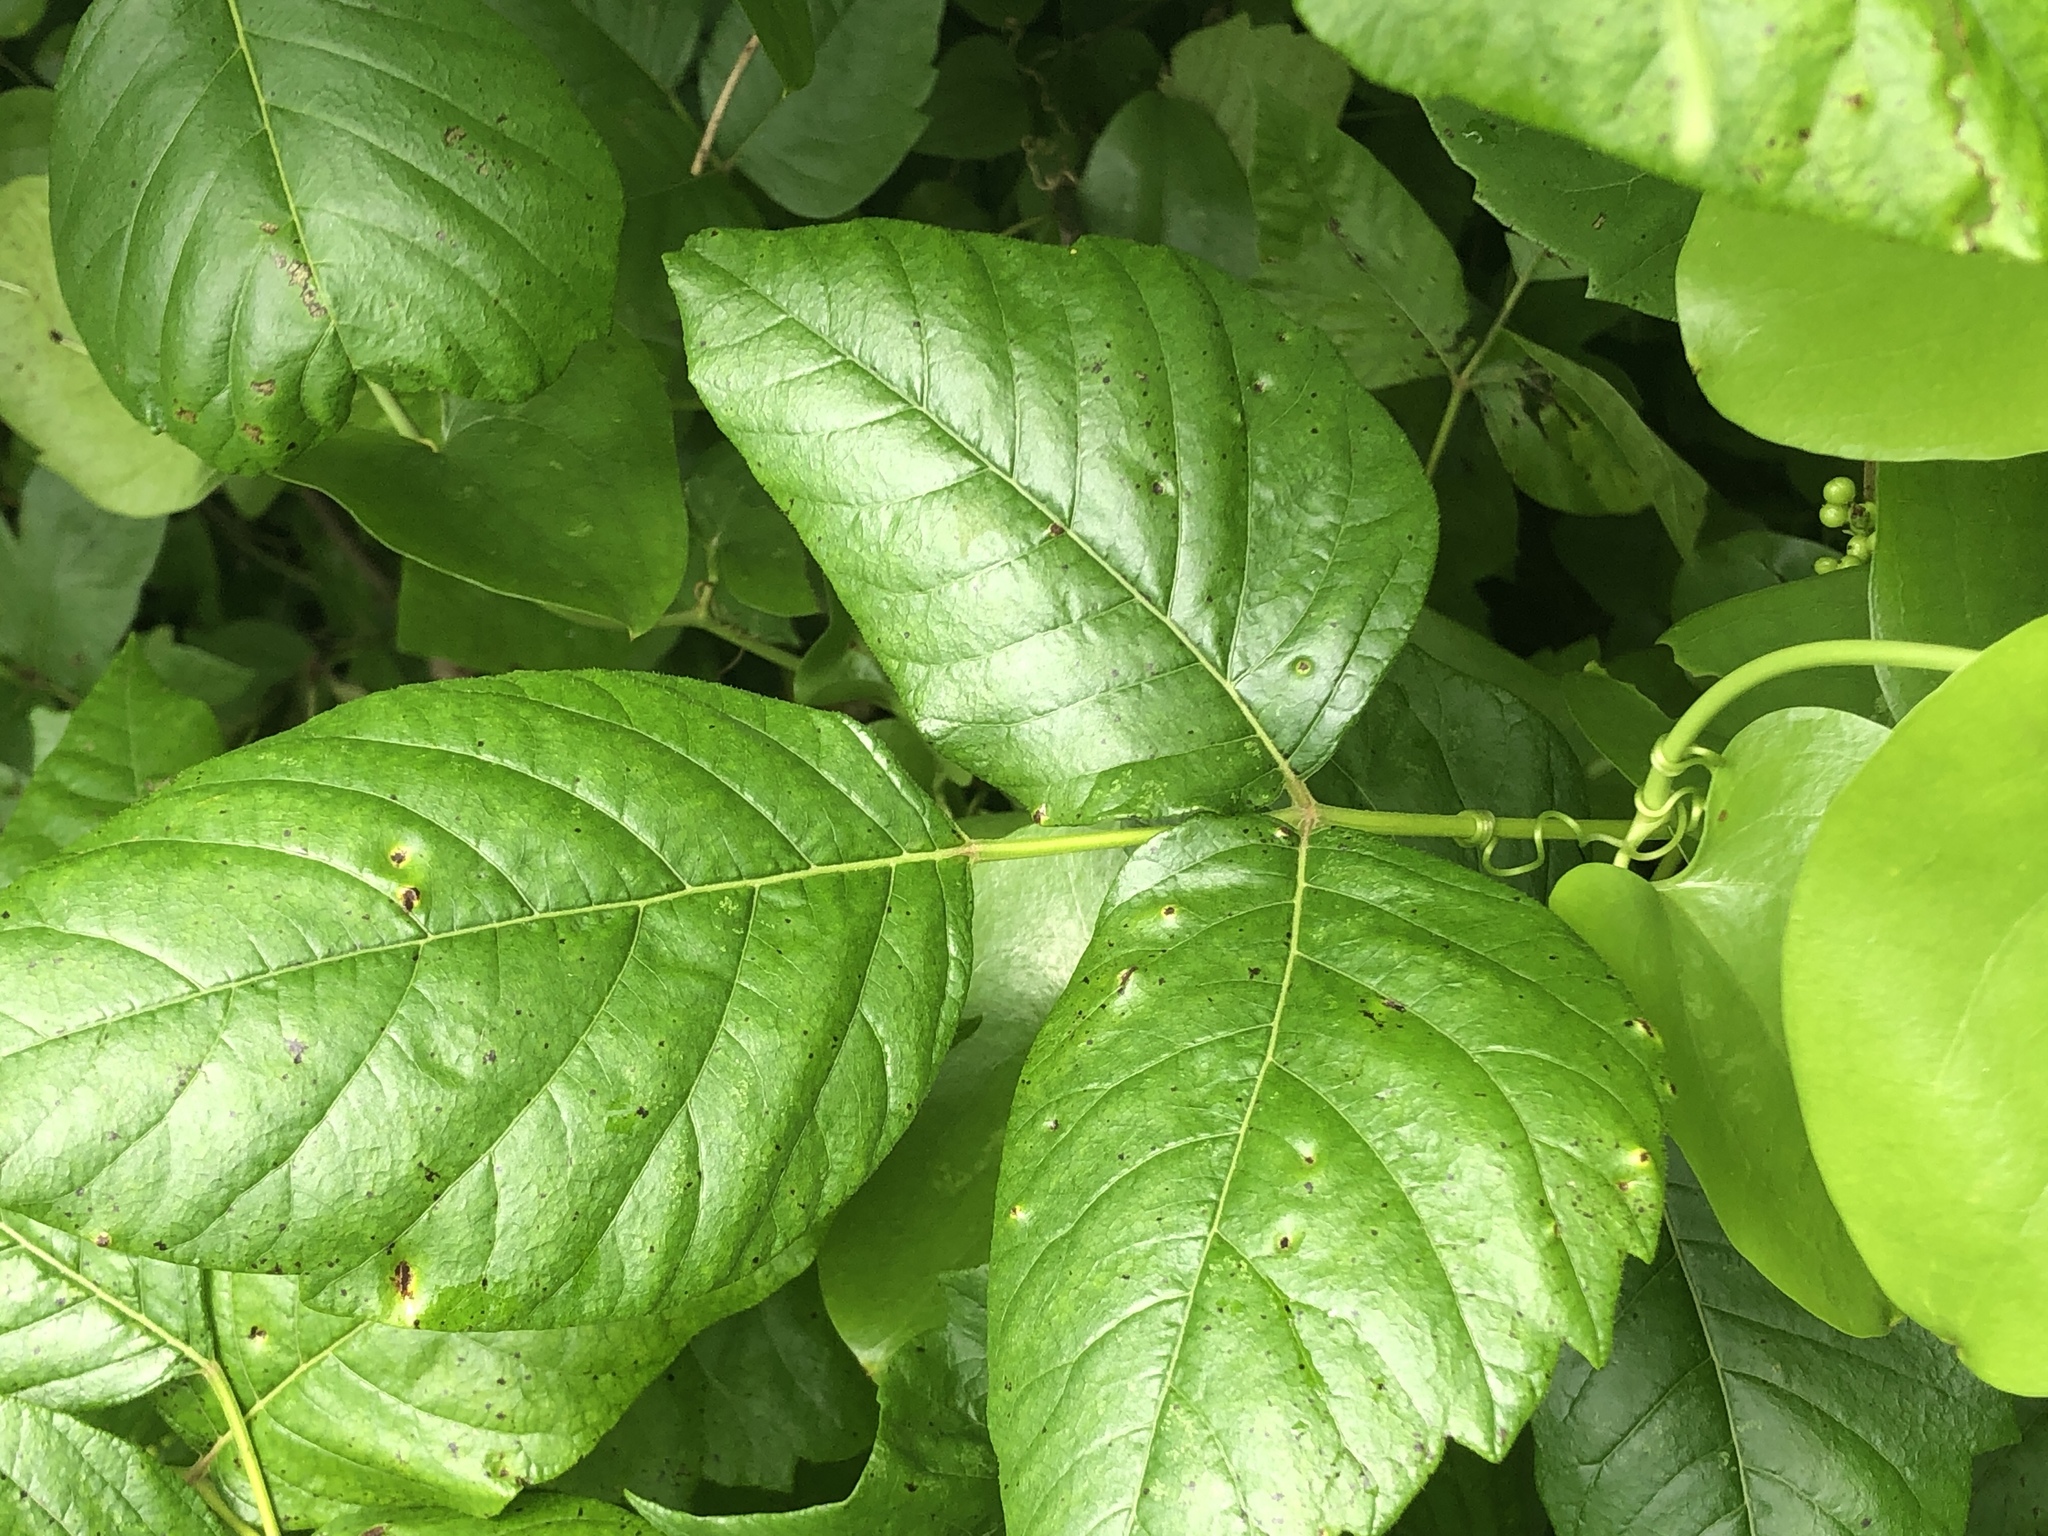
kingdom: Plantae
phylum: Tracheophyta
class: Magnoliopsida
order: Sapindales
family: Anacardiaceae
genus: Toxicodendron
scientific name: Toxicodendron radicans
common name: Poison ivy
